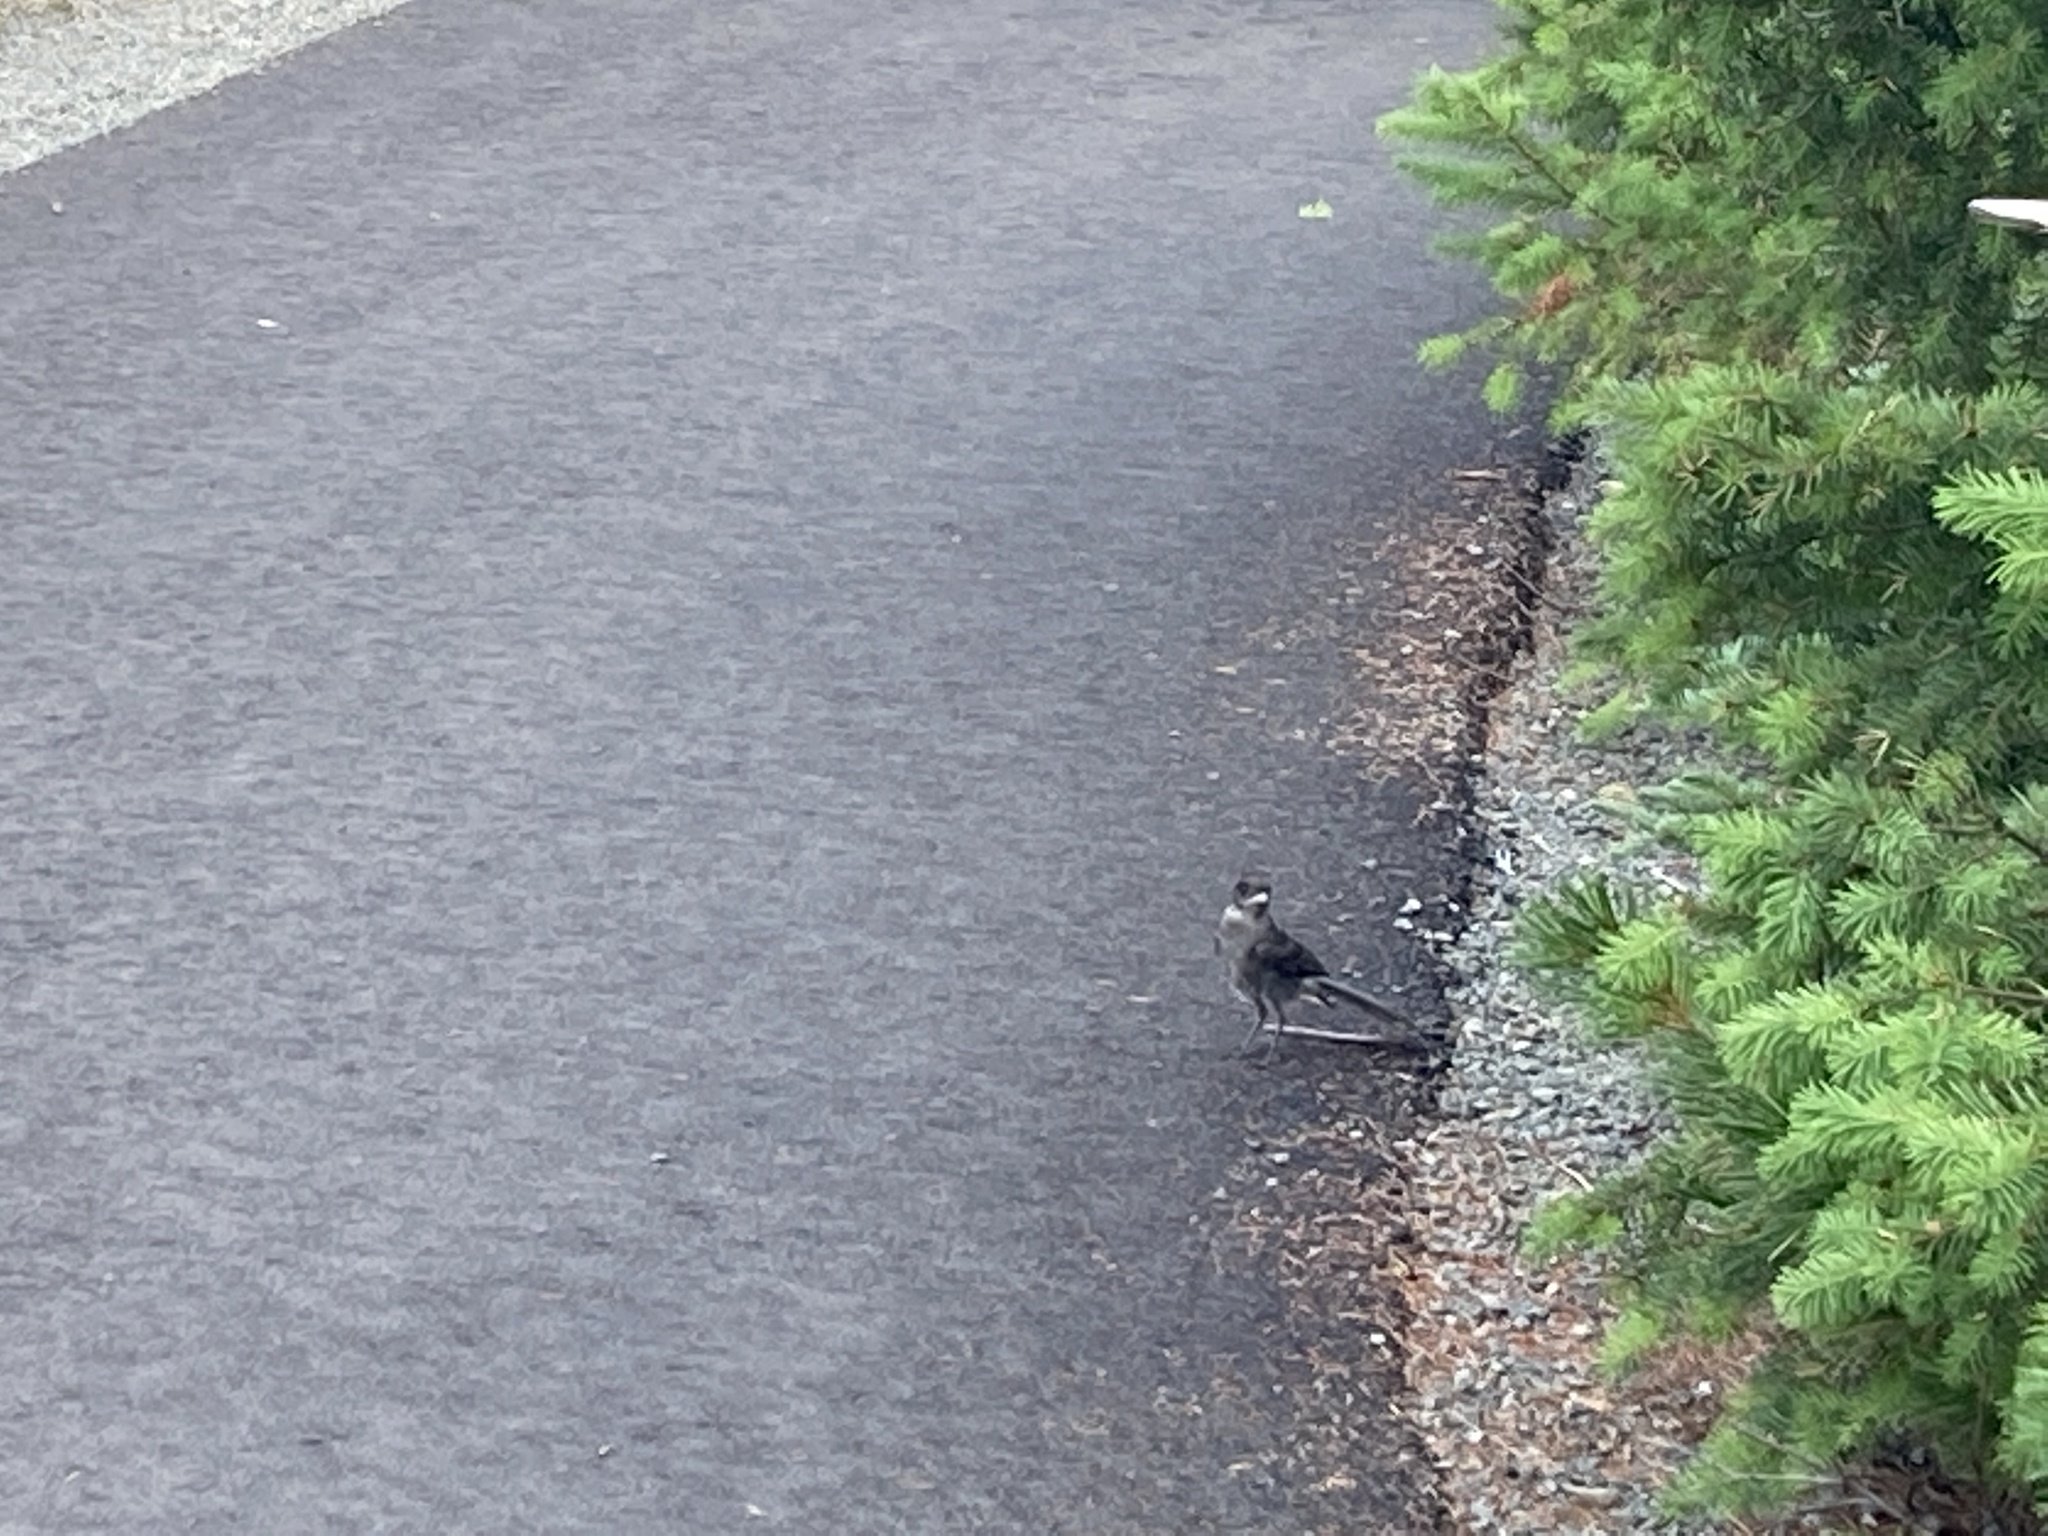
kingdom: Animalia
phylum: Chordata
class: Aves
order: Passeriformes
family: Corvidae
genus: Perisoreus
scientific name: Perisoreus canadensis
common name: Gray jay
